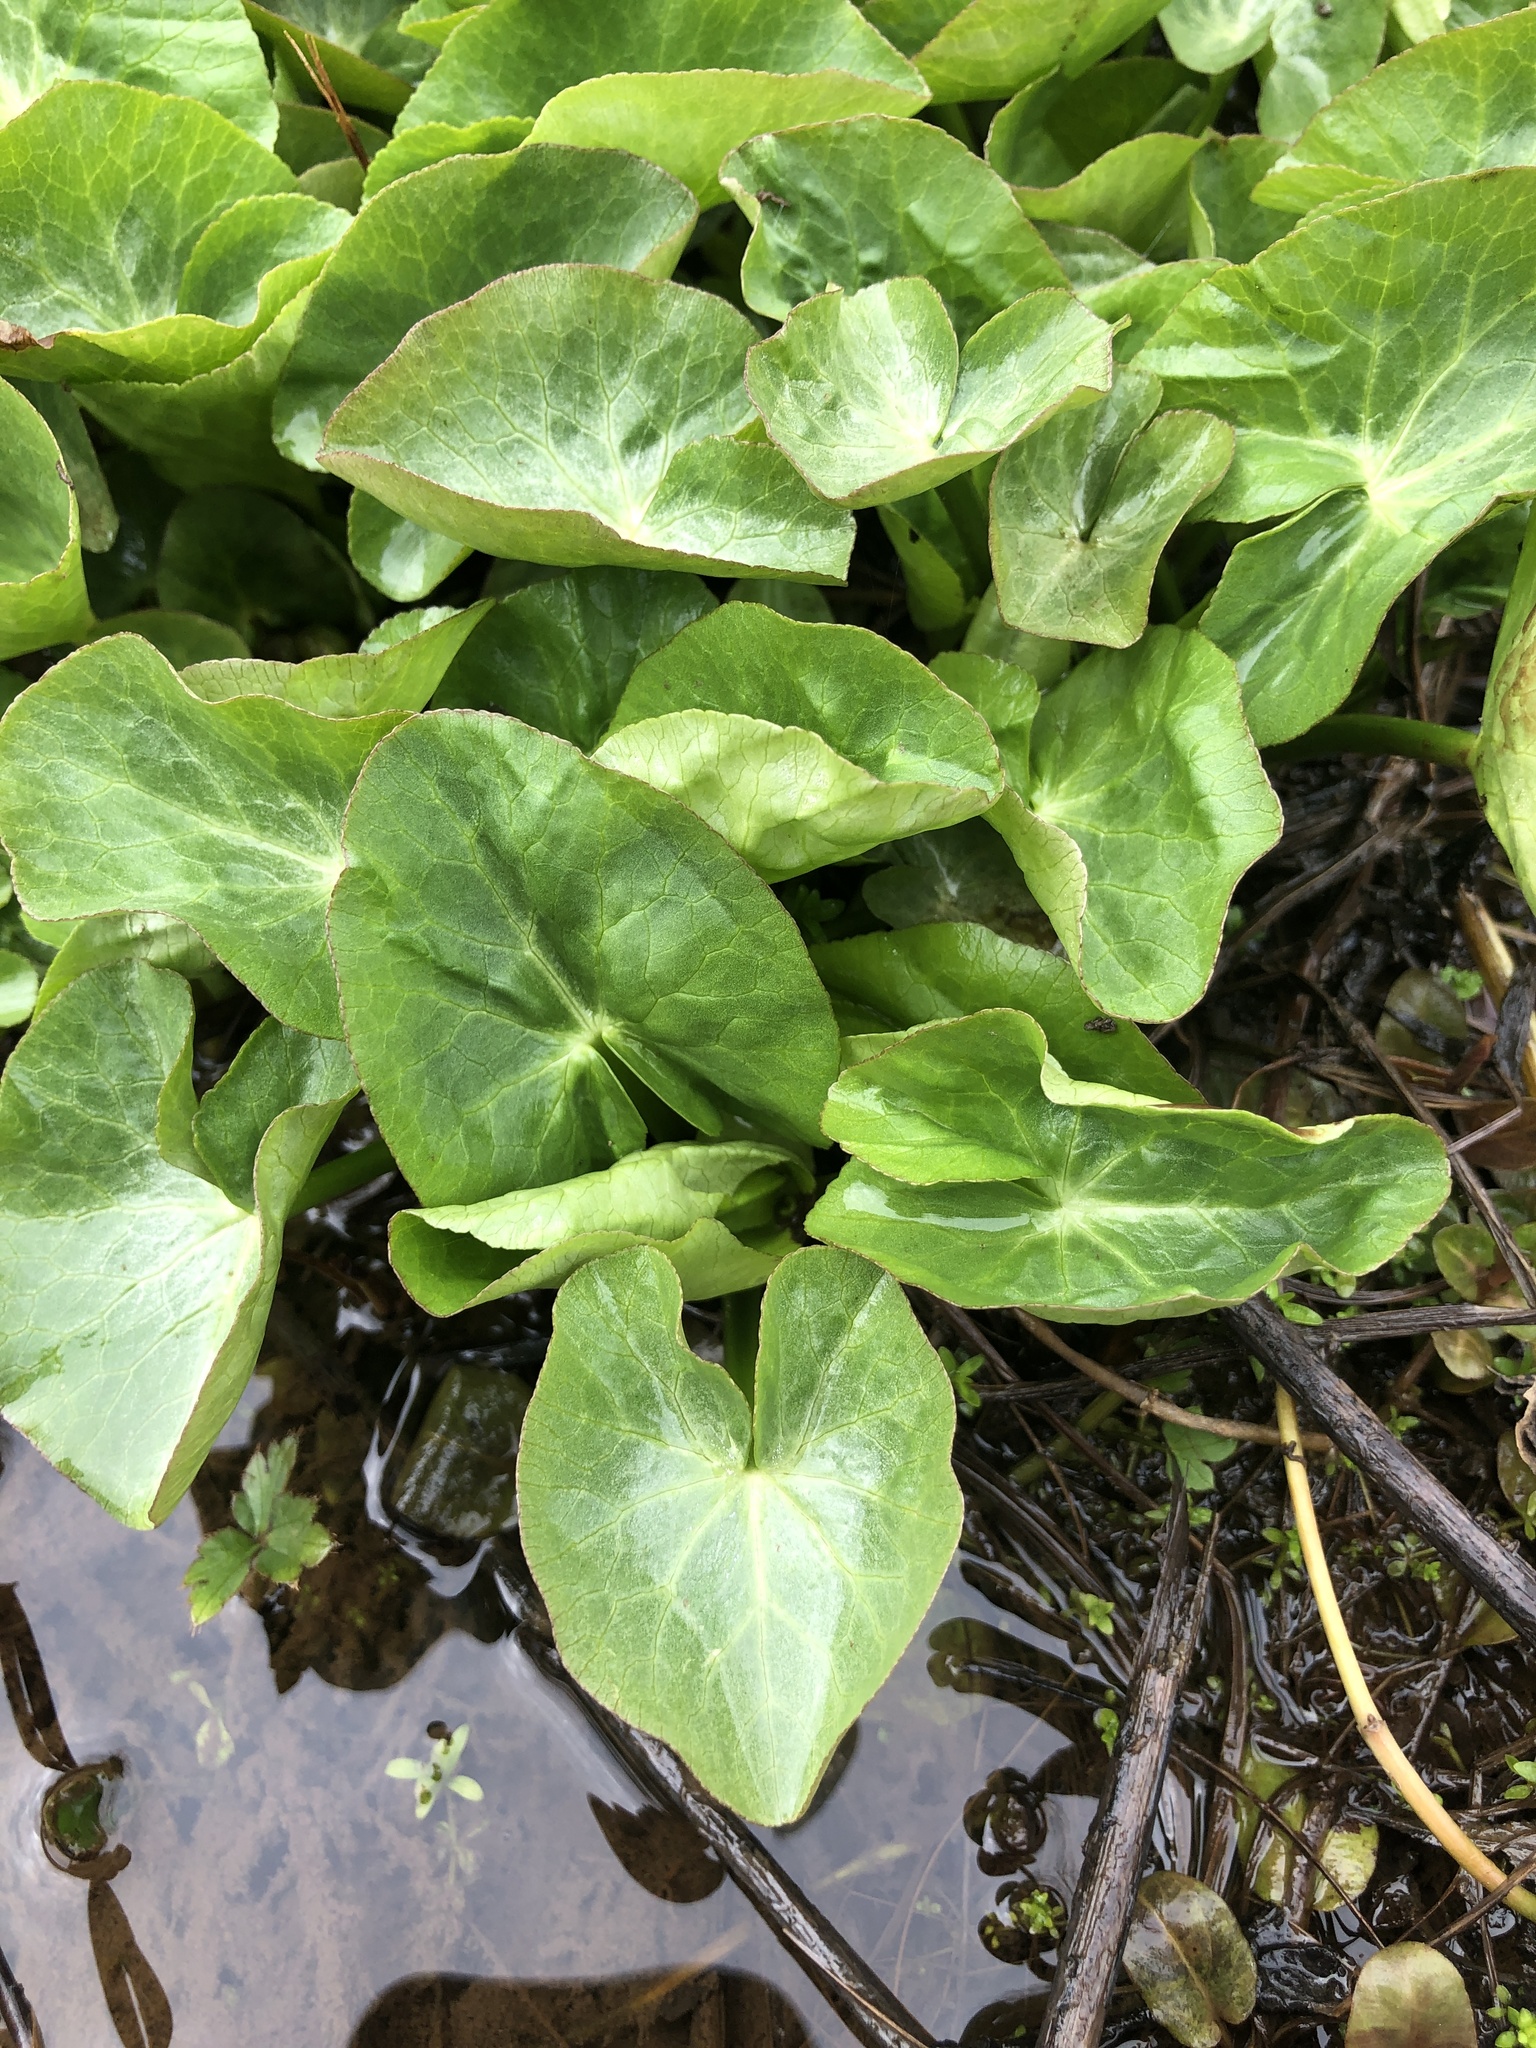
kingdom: Plantae
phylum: Tracheophyta
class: Magnoliopsida
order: Ranunculales
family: Ranunculaceae
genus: Caltha
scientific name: Caltha palustris
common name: Marsh marigold
